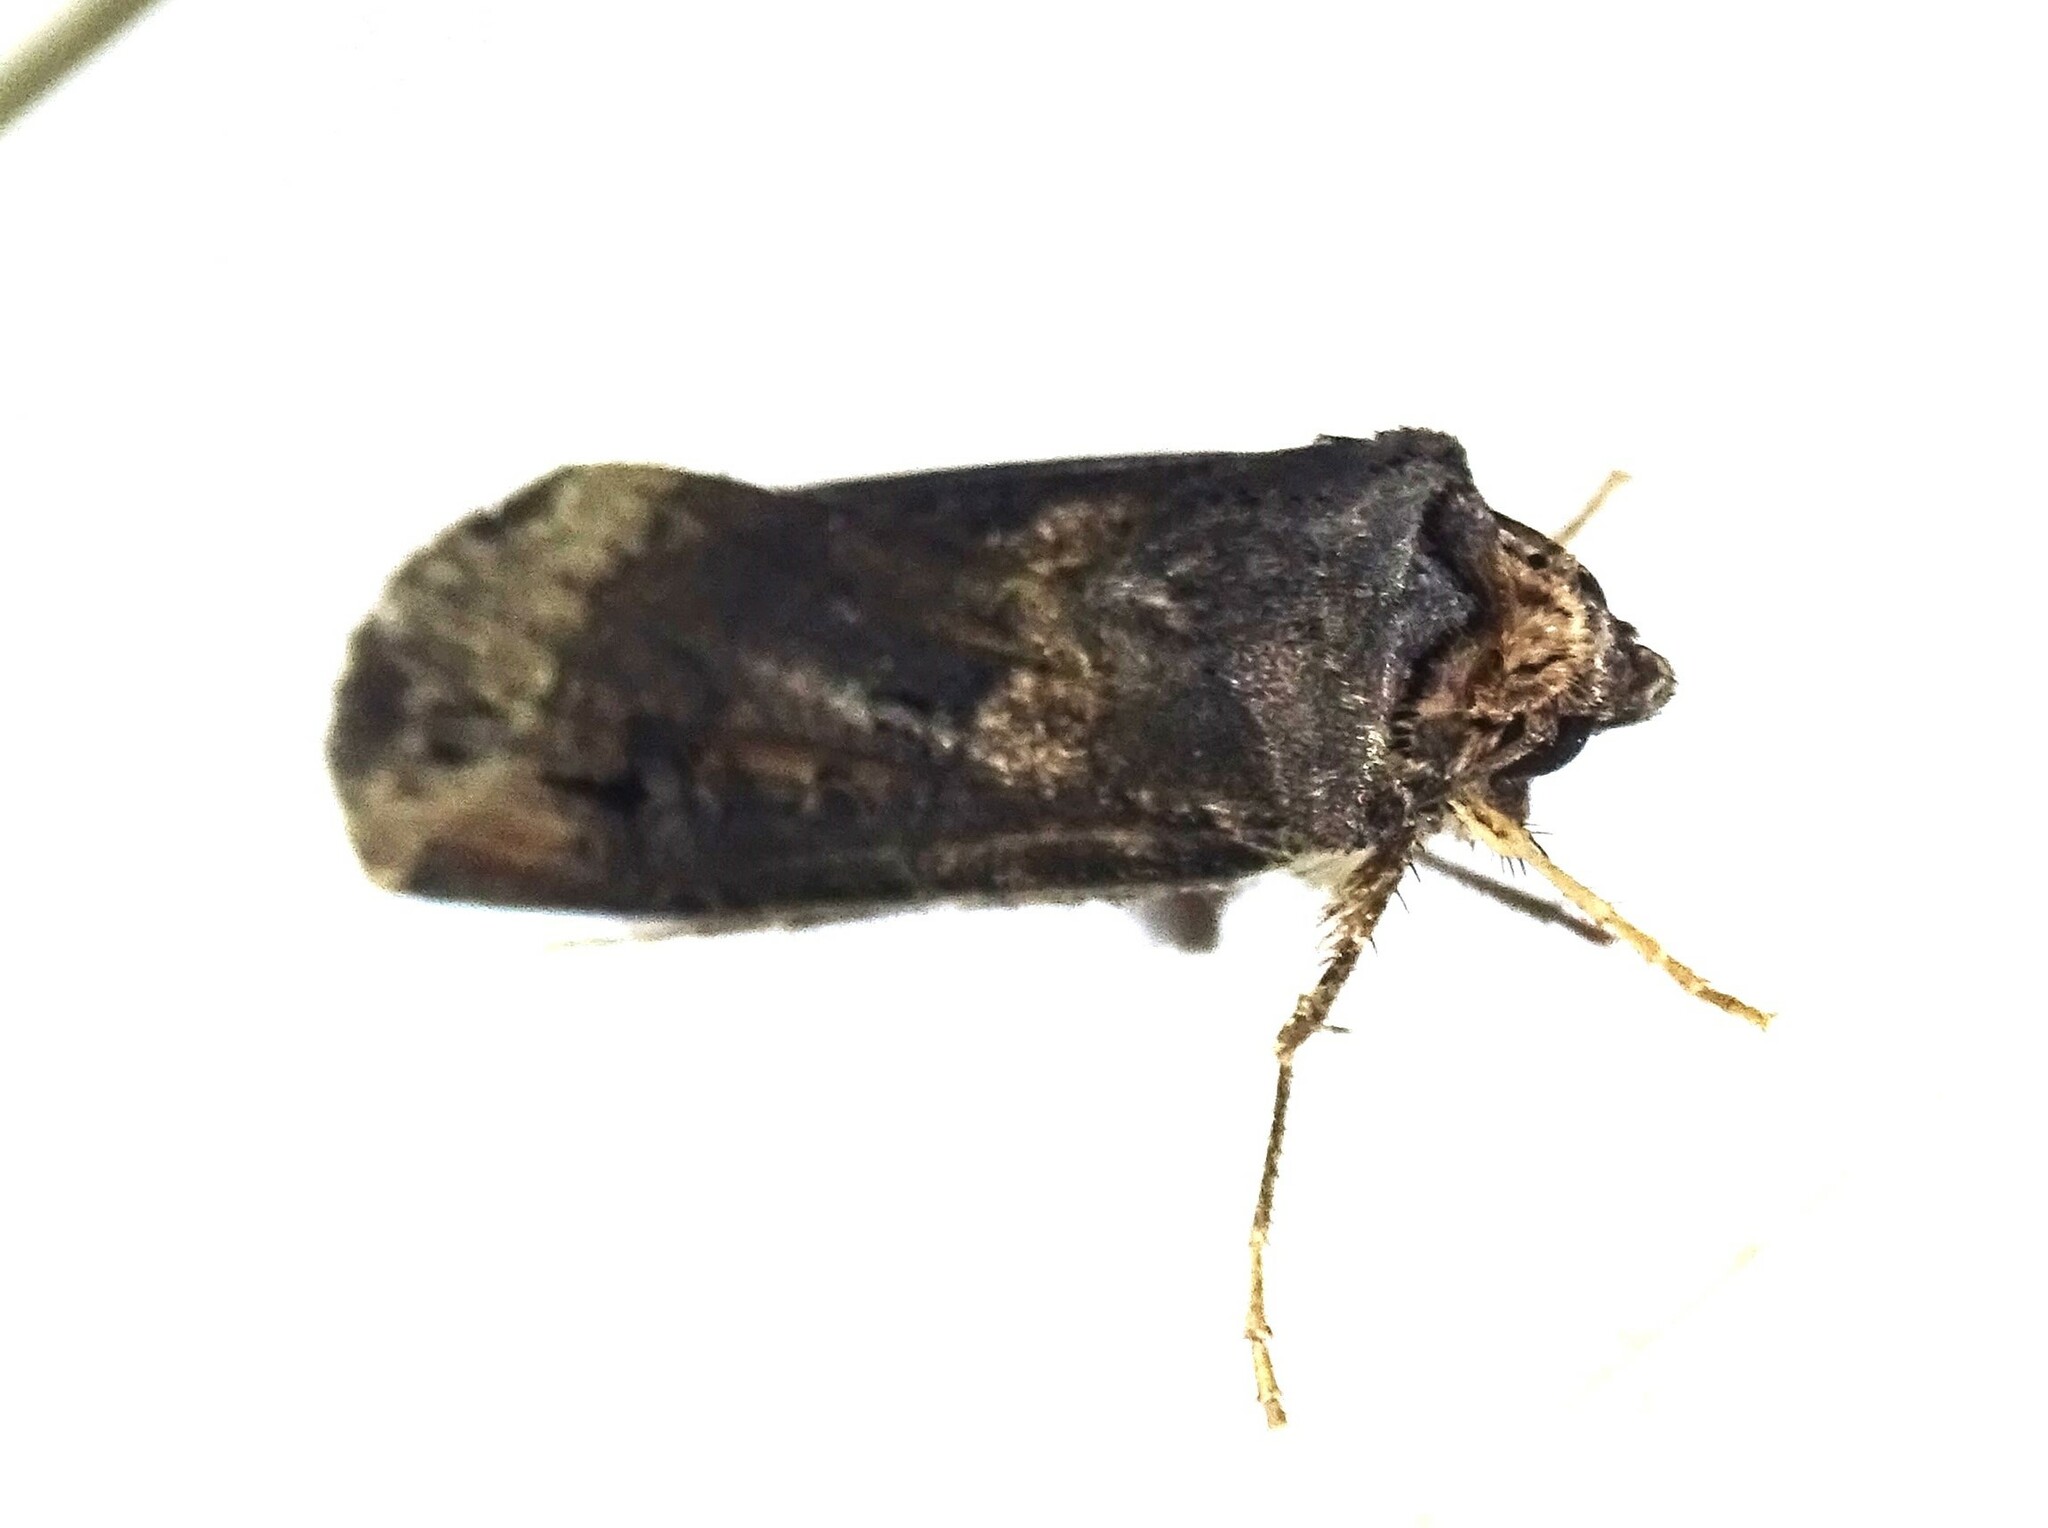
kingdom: Animalia
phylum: Arthropoda
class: Insecta
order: Lepidoptera
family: Noctuidae
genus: Agrotis
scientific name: Agrotis ipsilon
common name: Dark sword-grass
